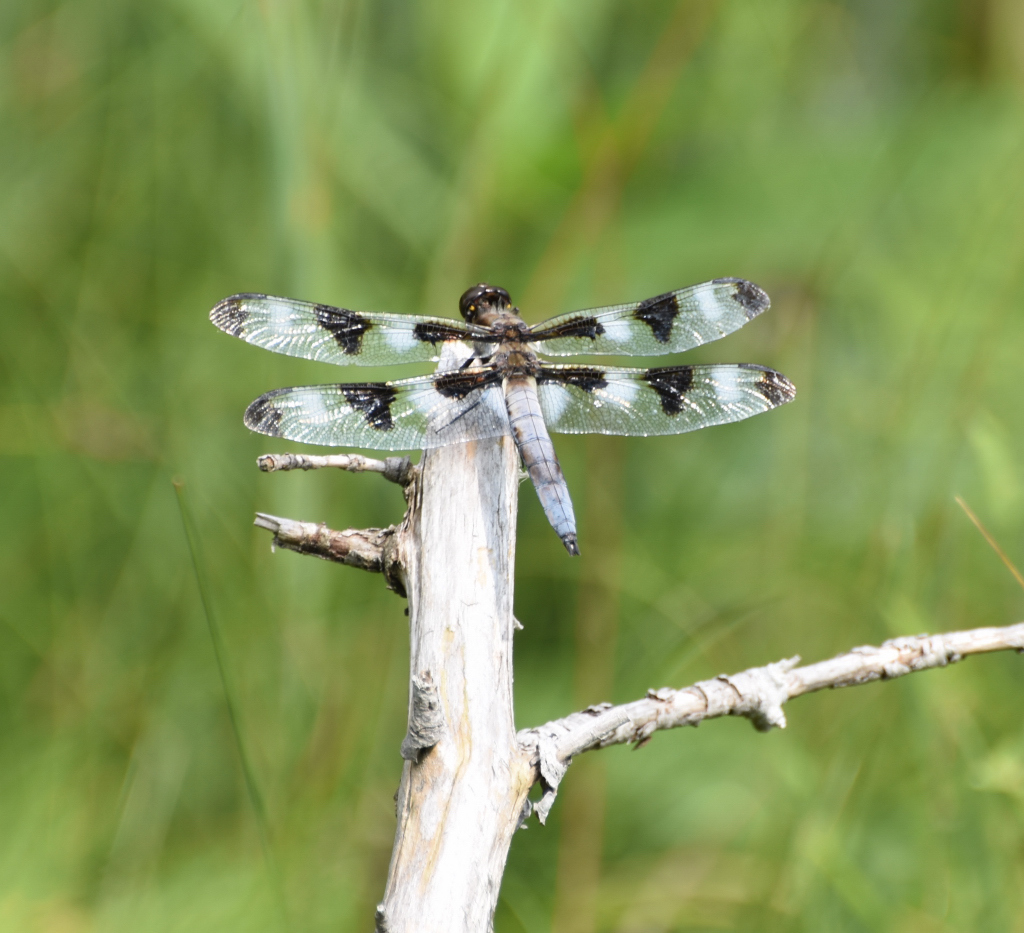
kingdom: Animalia
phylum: Arthropoda
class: Insecta
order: Odonata
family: Libellulidae
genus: Libellula
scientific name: Libellula pulchella
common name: Twelve-spotted skimmer
